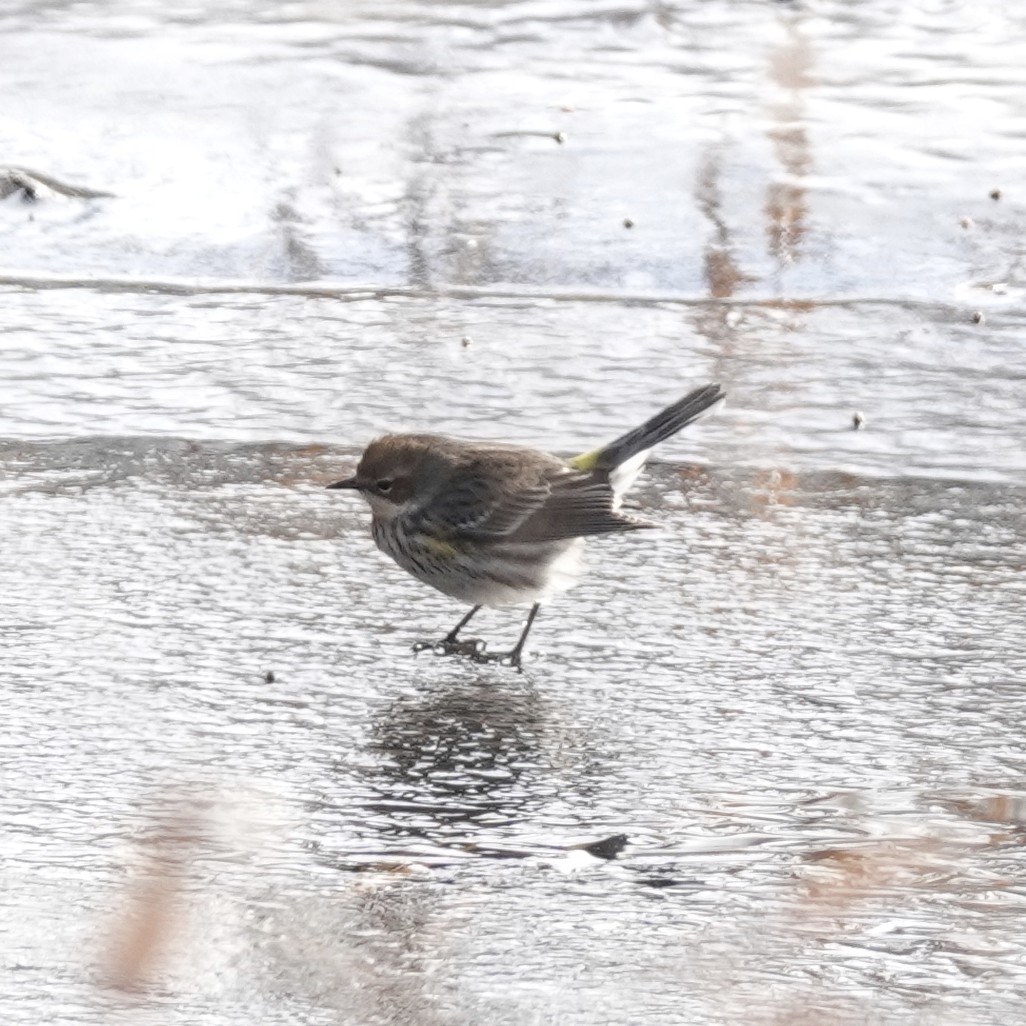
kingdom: Animalia
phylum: Chordata
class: Aves
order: Passeriformes
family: Parulidae
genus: Setophaga
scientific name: Setophaga coronata
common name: Myrtle warbler
